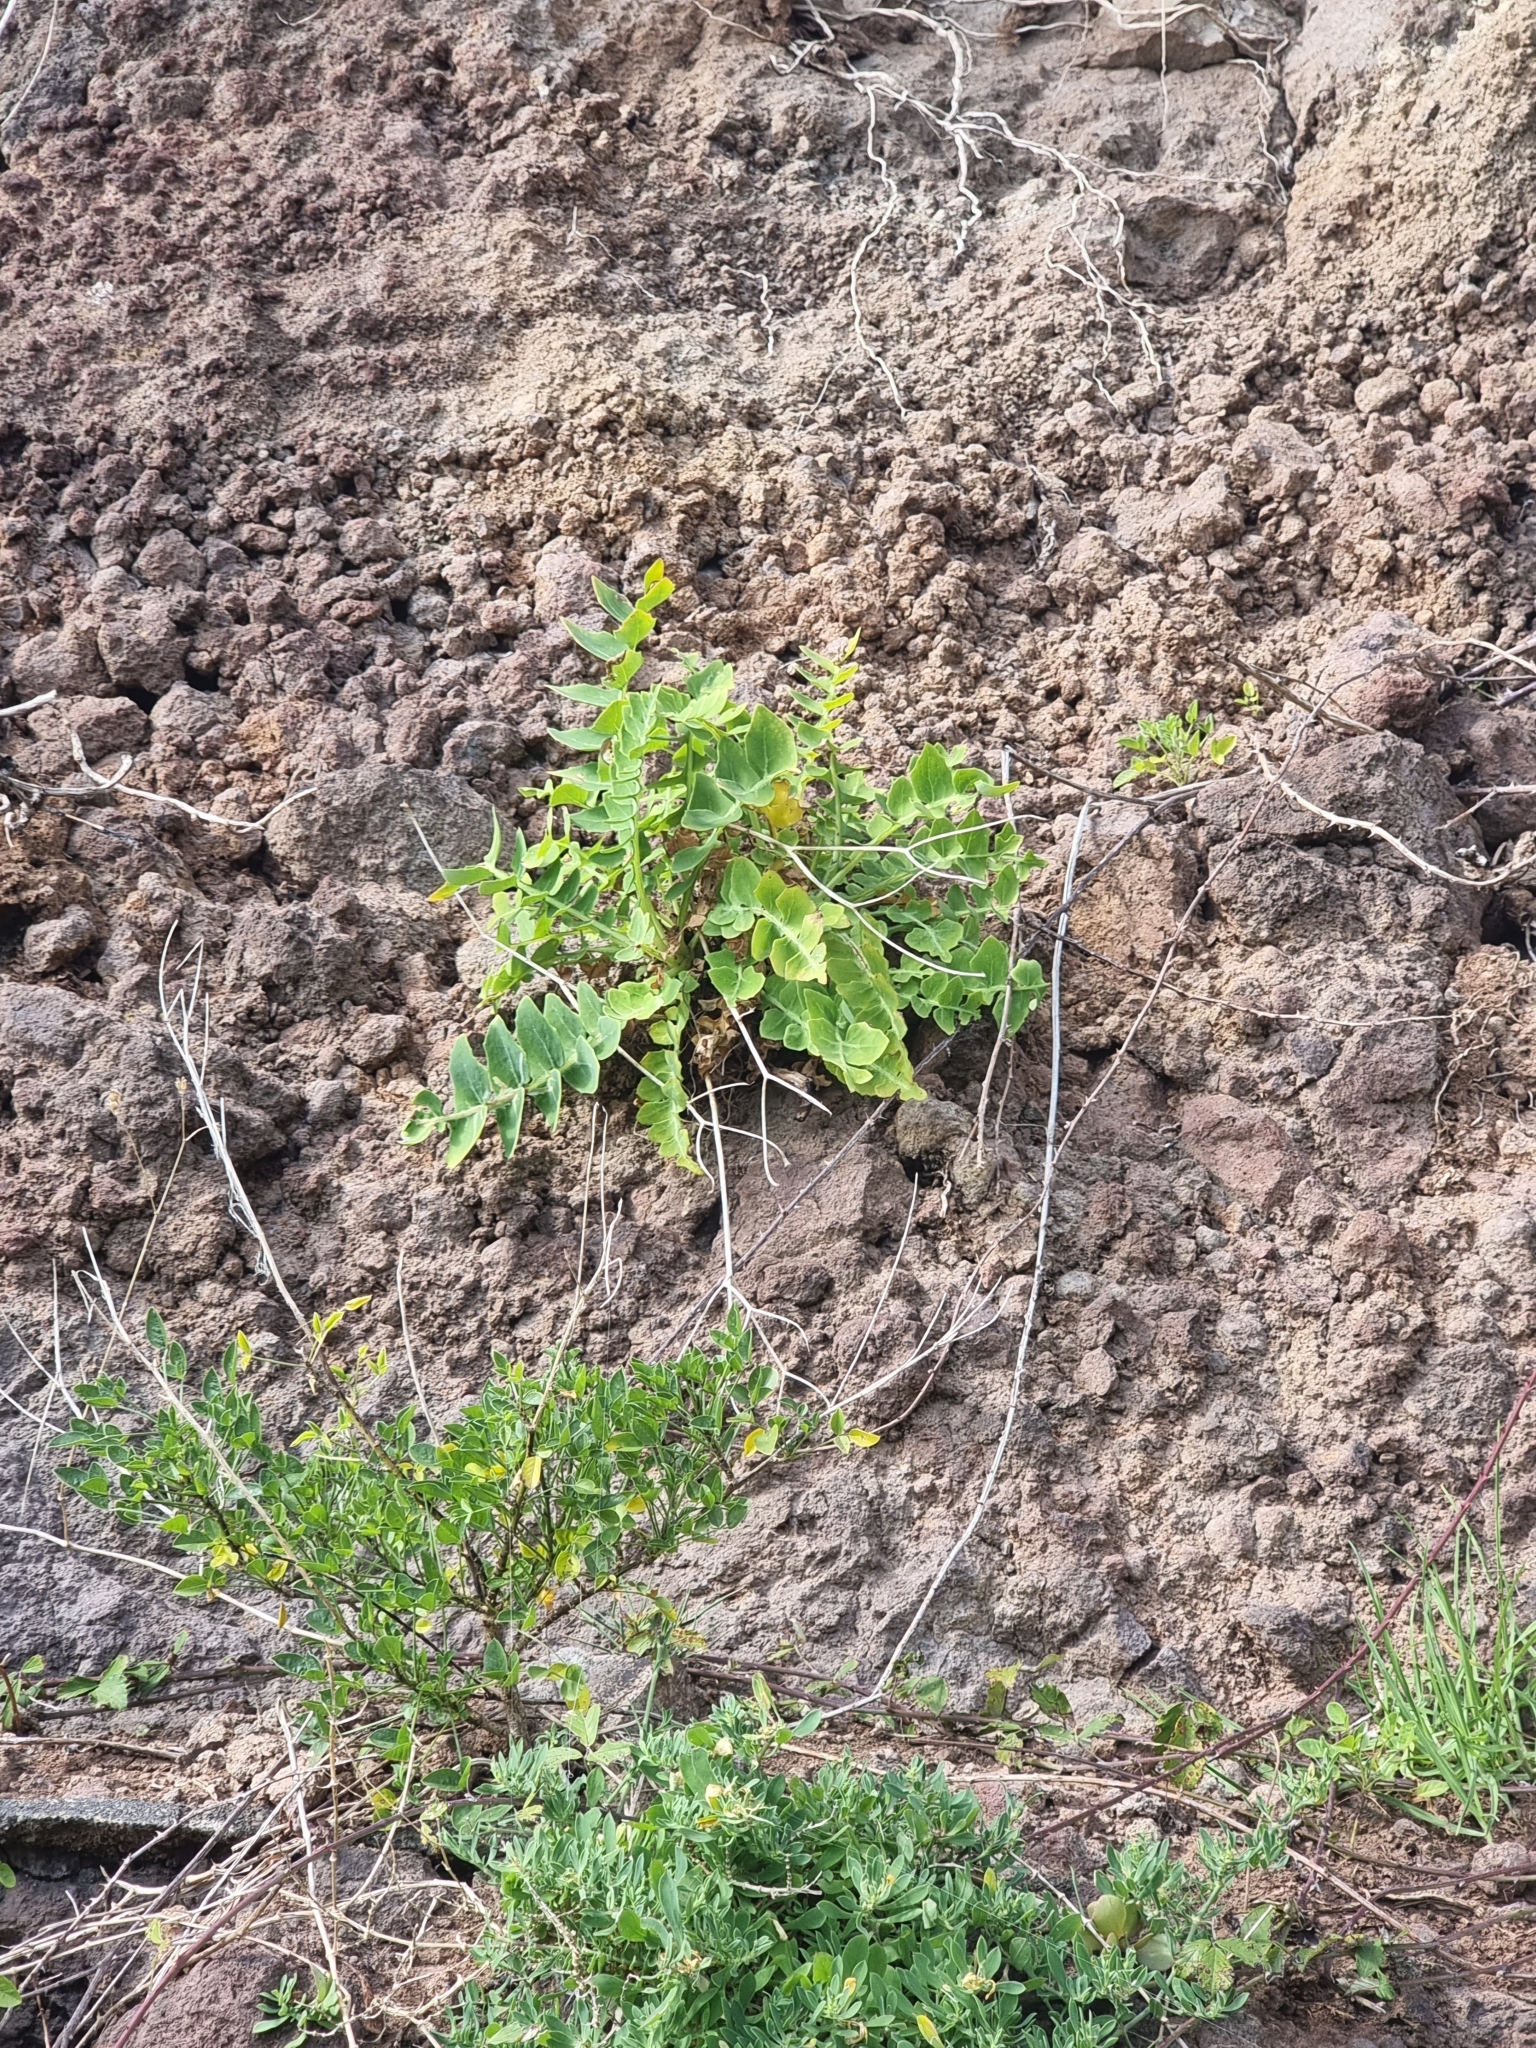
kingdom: Plantae
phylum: Tracheophyta
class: Magnoliopsida
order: Asterales
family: Asteraceae
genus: Sonchus
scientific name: Sonchus latifolius
